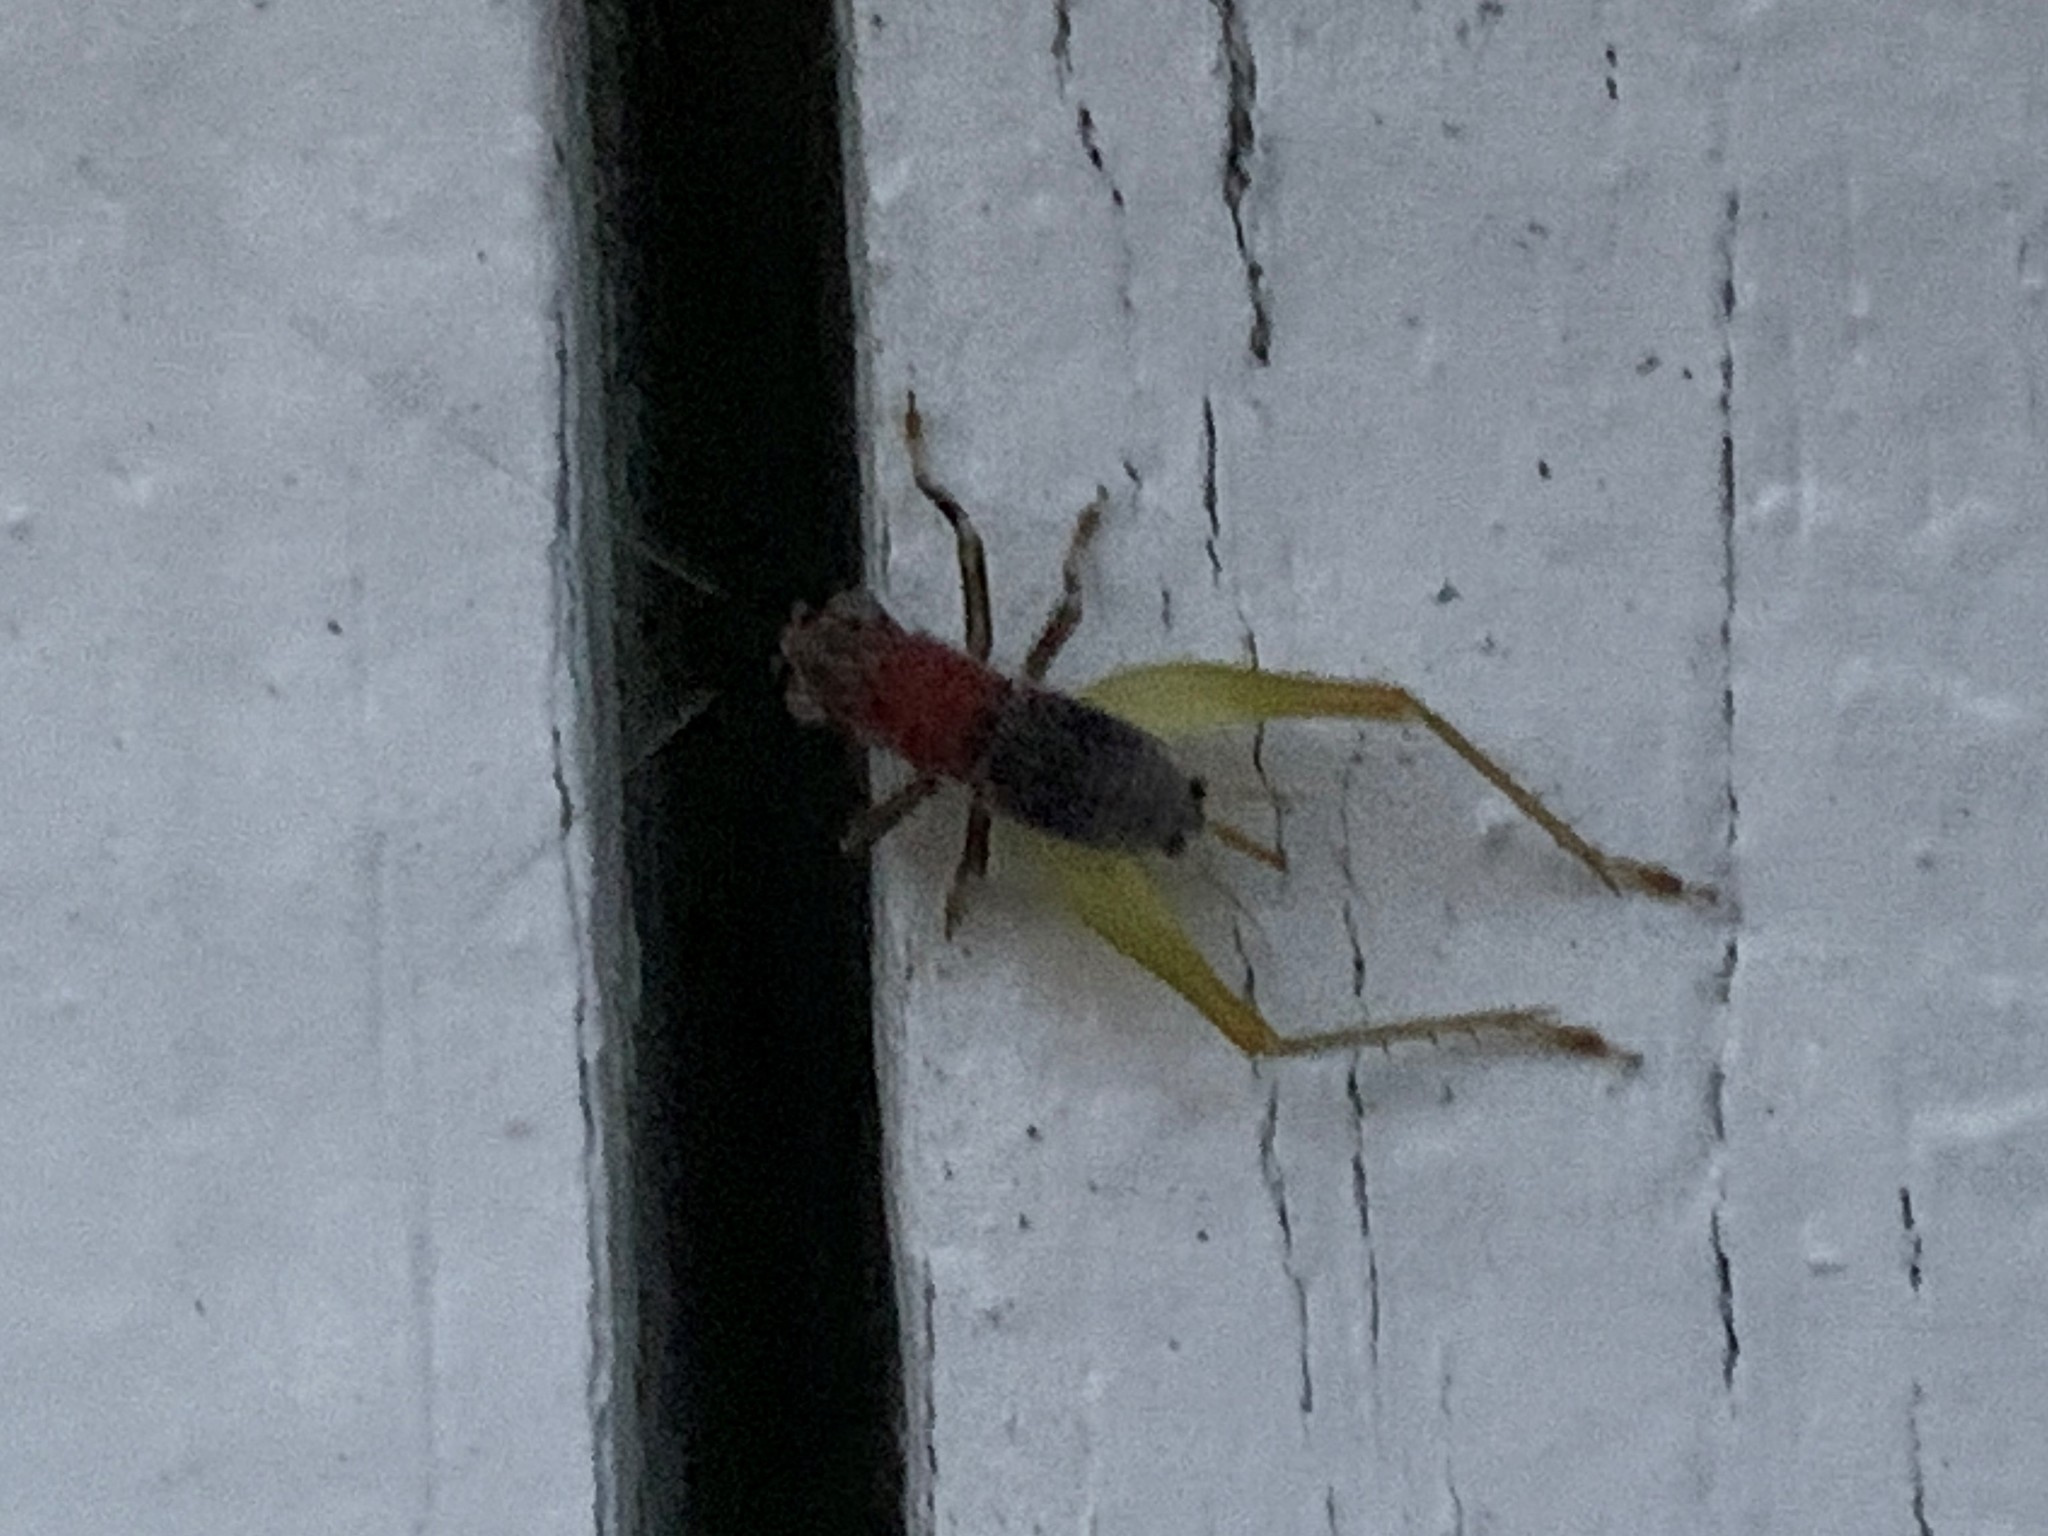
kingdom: Animalia
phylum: Arthropoda
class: Insecta
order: Orthoptera
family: Trigonidiidae
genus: Phyllopalpus
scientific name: Phyllopalpus pulchellus
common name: Handsome trig
